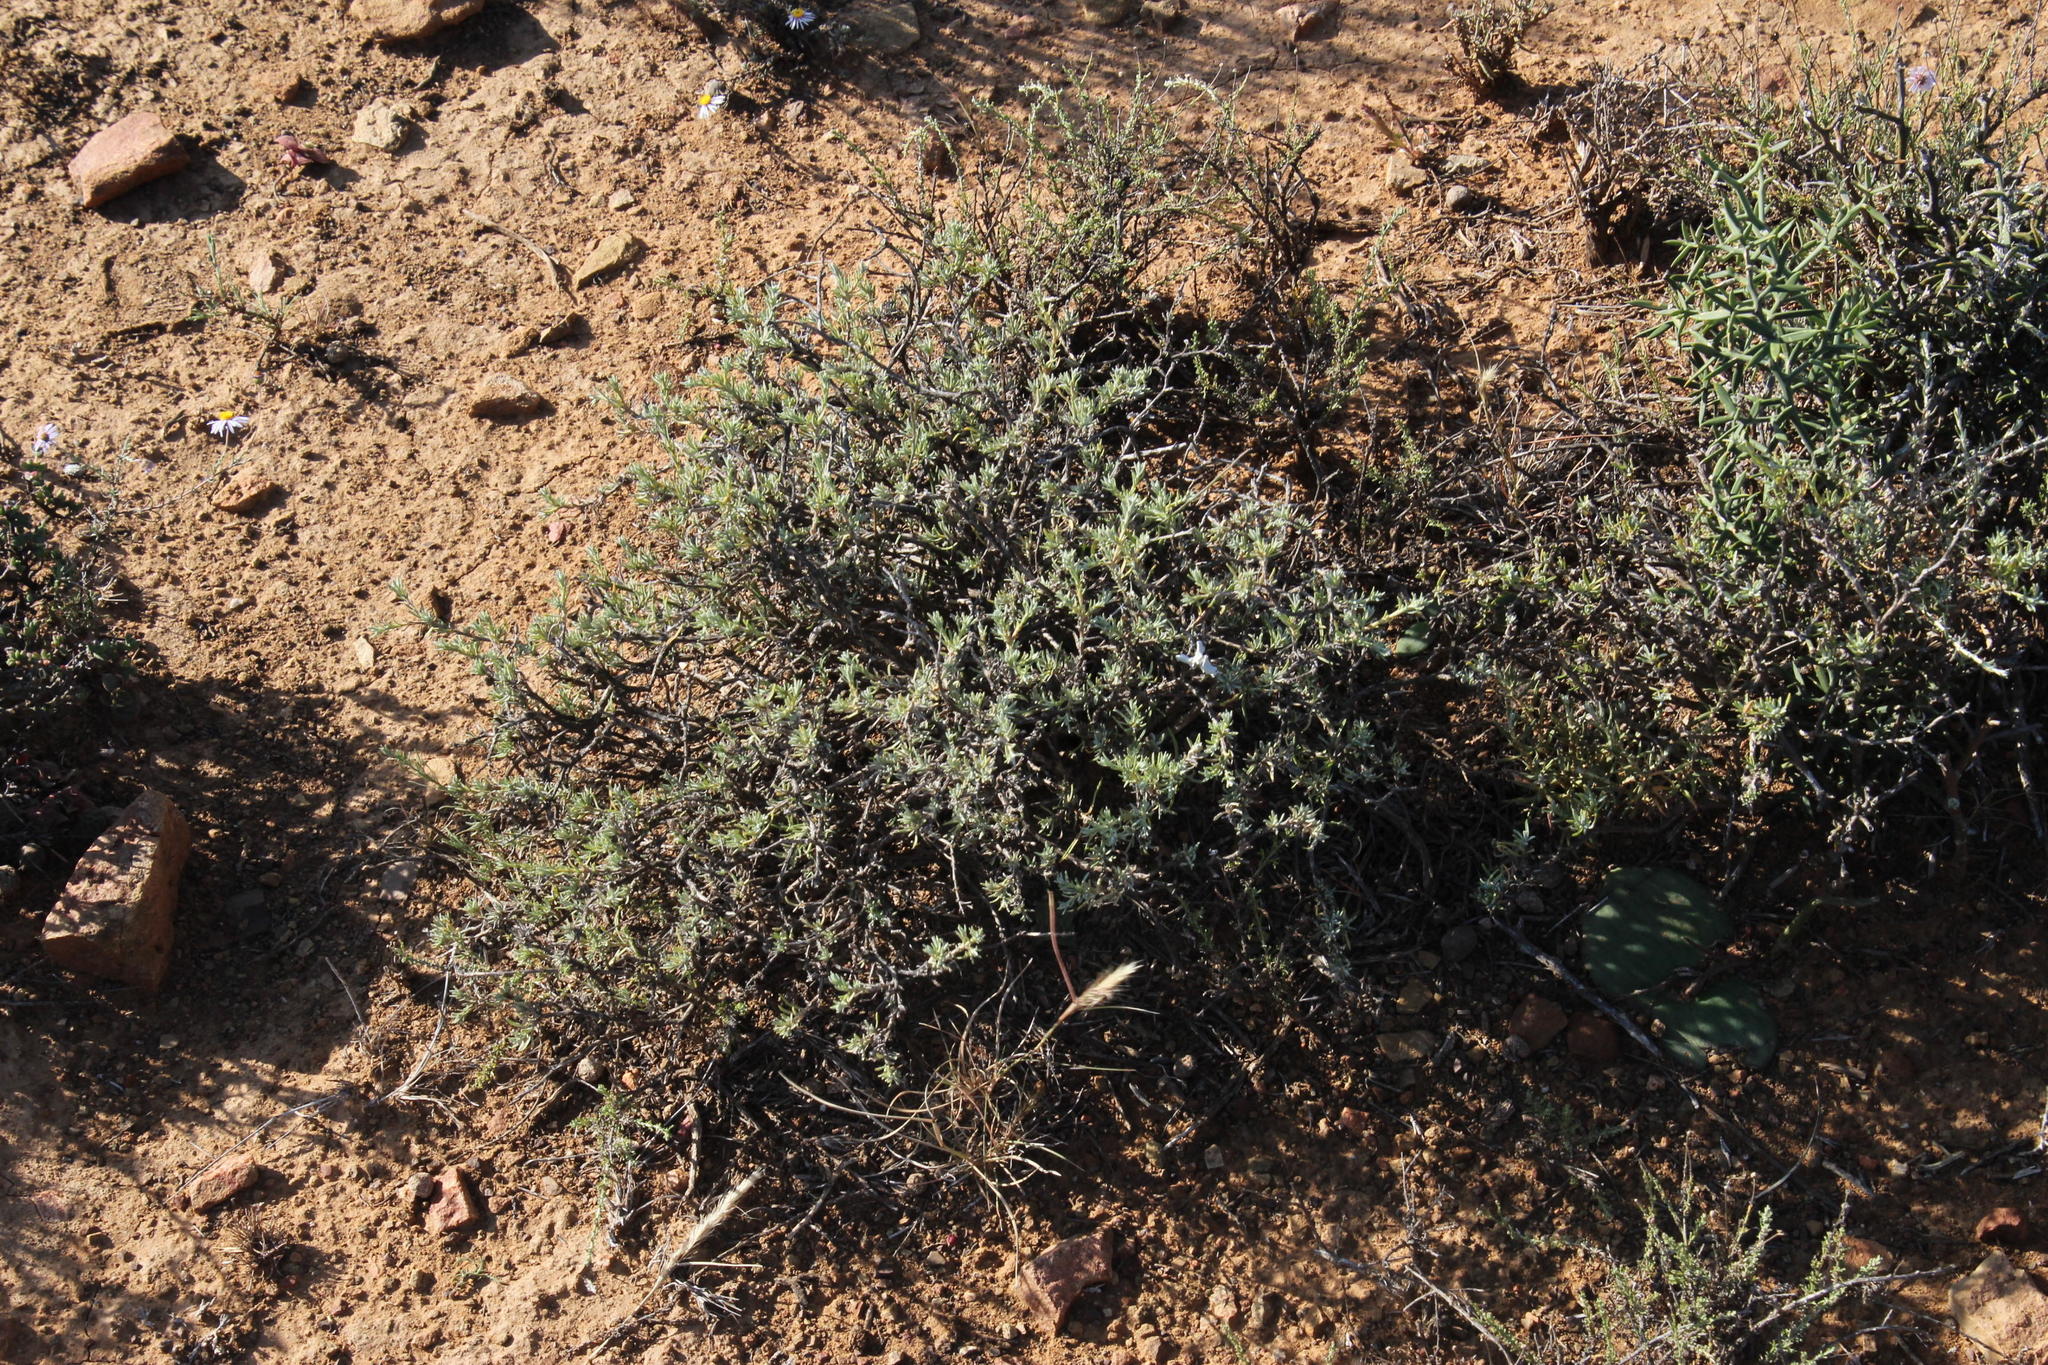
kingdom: Plantae
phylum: Tracheophyta
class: Liliopsida
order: Asparagales
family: Asparagaceae
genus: Massonia
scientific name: Massonia depressa
